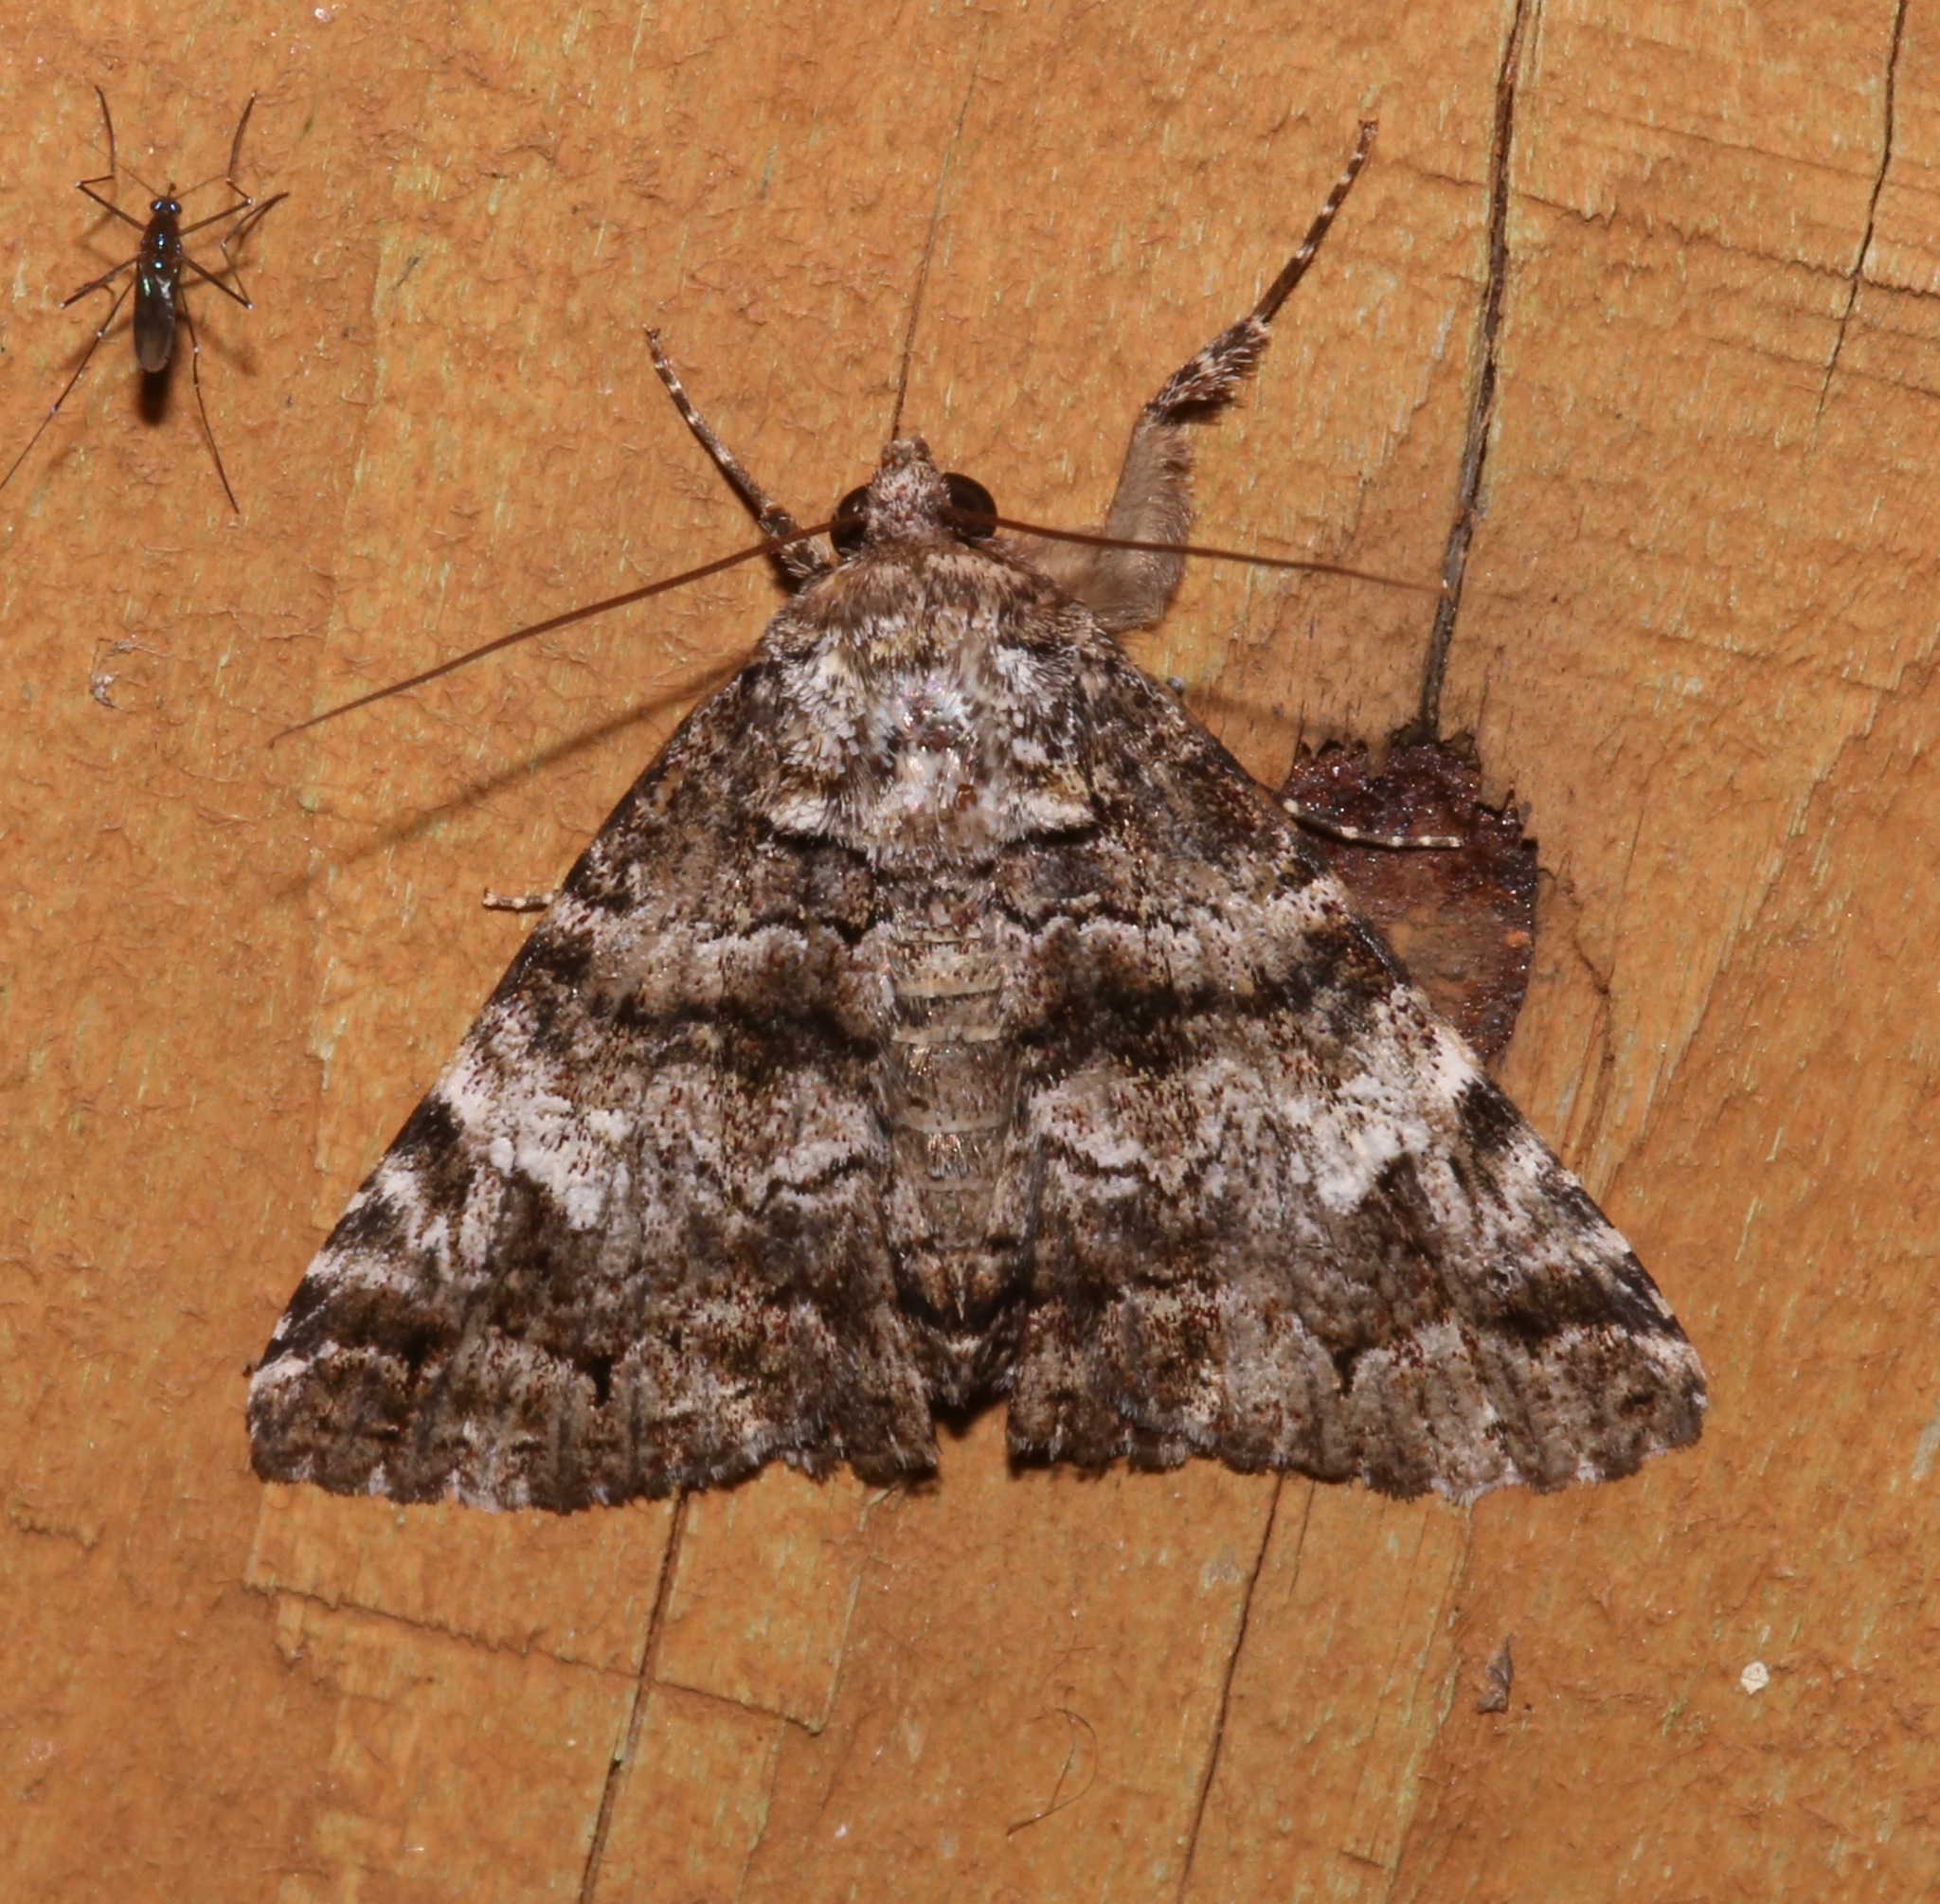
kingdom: Animalia
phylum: Arthropoda
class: Insecta
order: Lepidoptera
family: Erebidae
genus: Metria
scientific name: Metria amella
